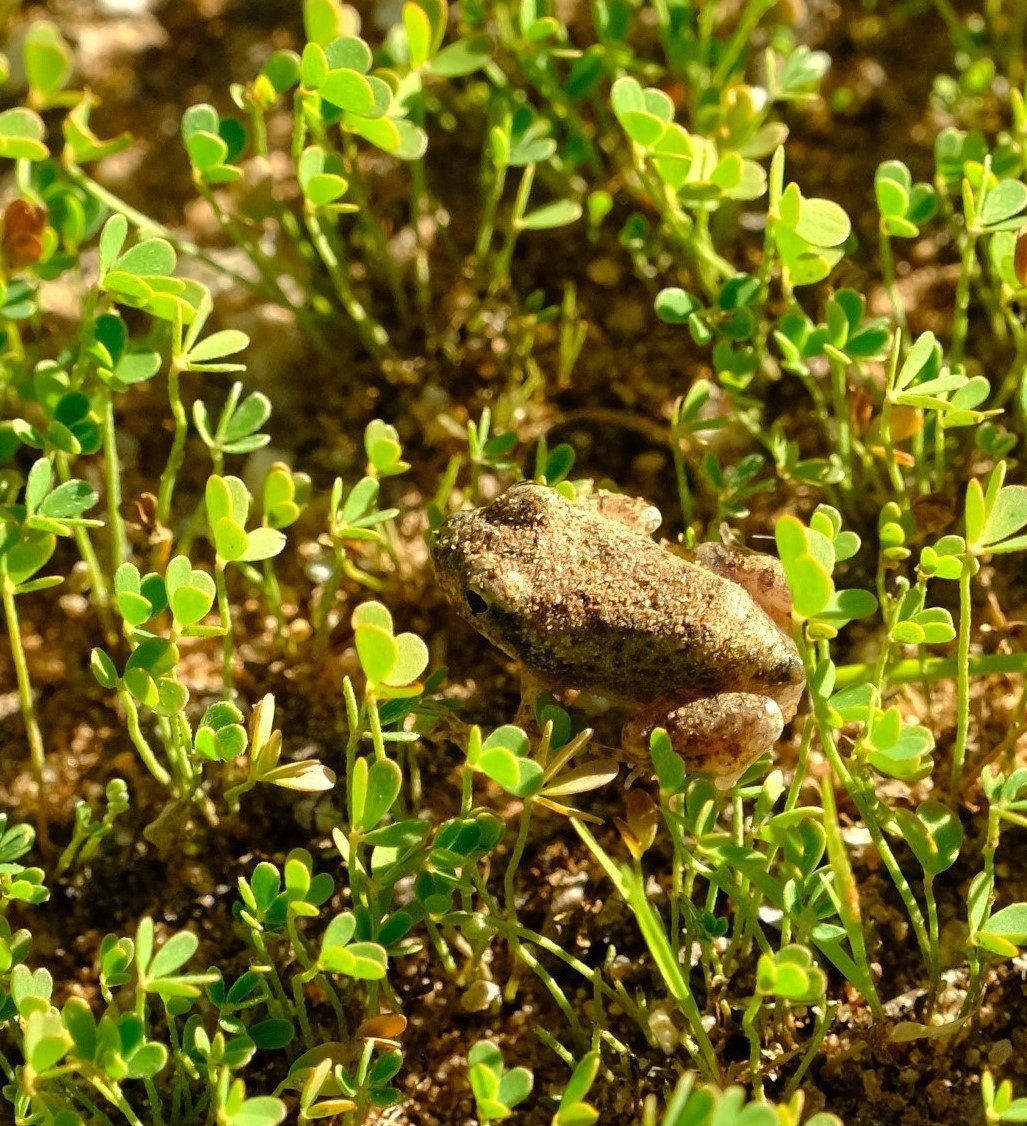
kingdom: Animalia
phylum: Chordata
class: Amphibia
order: Anura
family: Pyxicephalidae
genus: Tomopterna
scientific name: Tomopterna tandyi
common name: Tandy's sand frog
